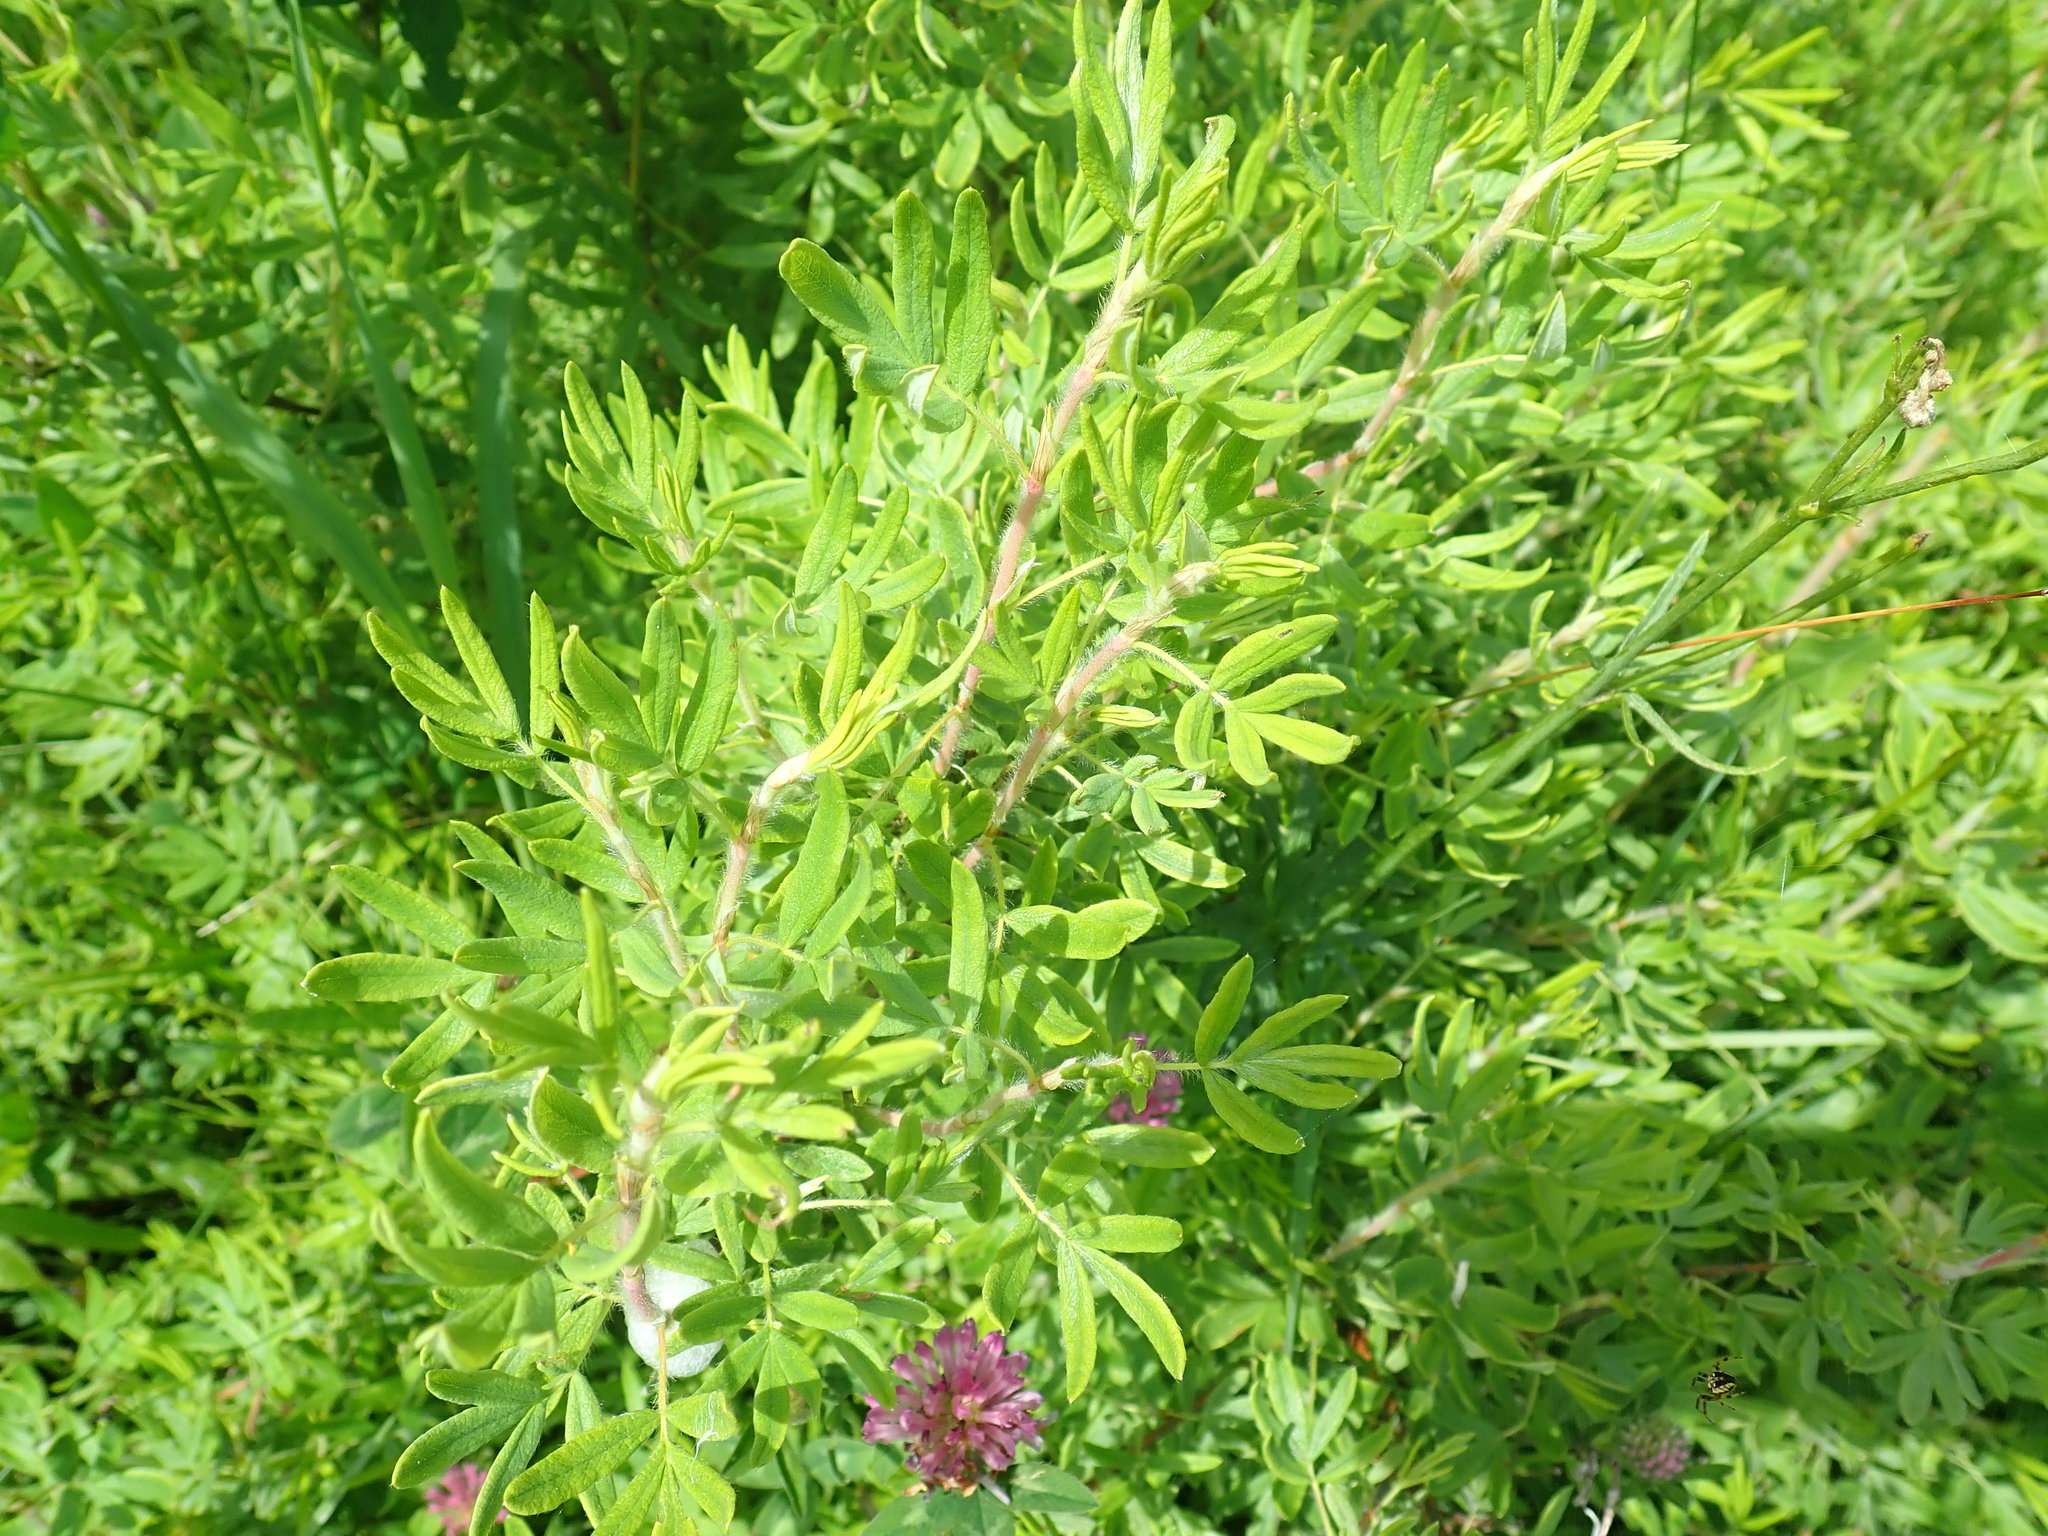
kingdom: Plantae
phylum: Tracheophyta
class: Magnoliopsida
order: Rosales
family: Rosaceae
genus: Dasiphora
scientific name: Dasiphora fruticosa
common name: Shrubby cinquefoil
